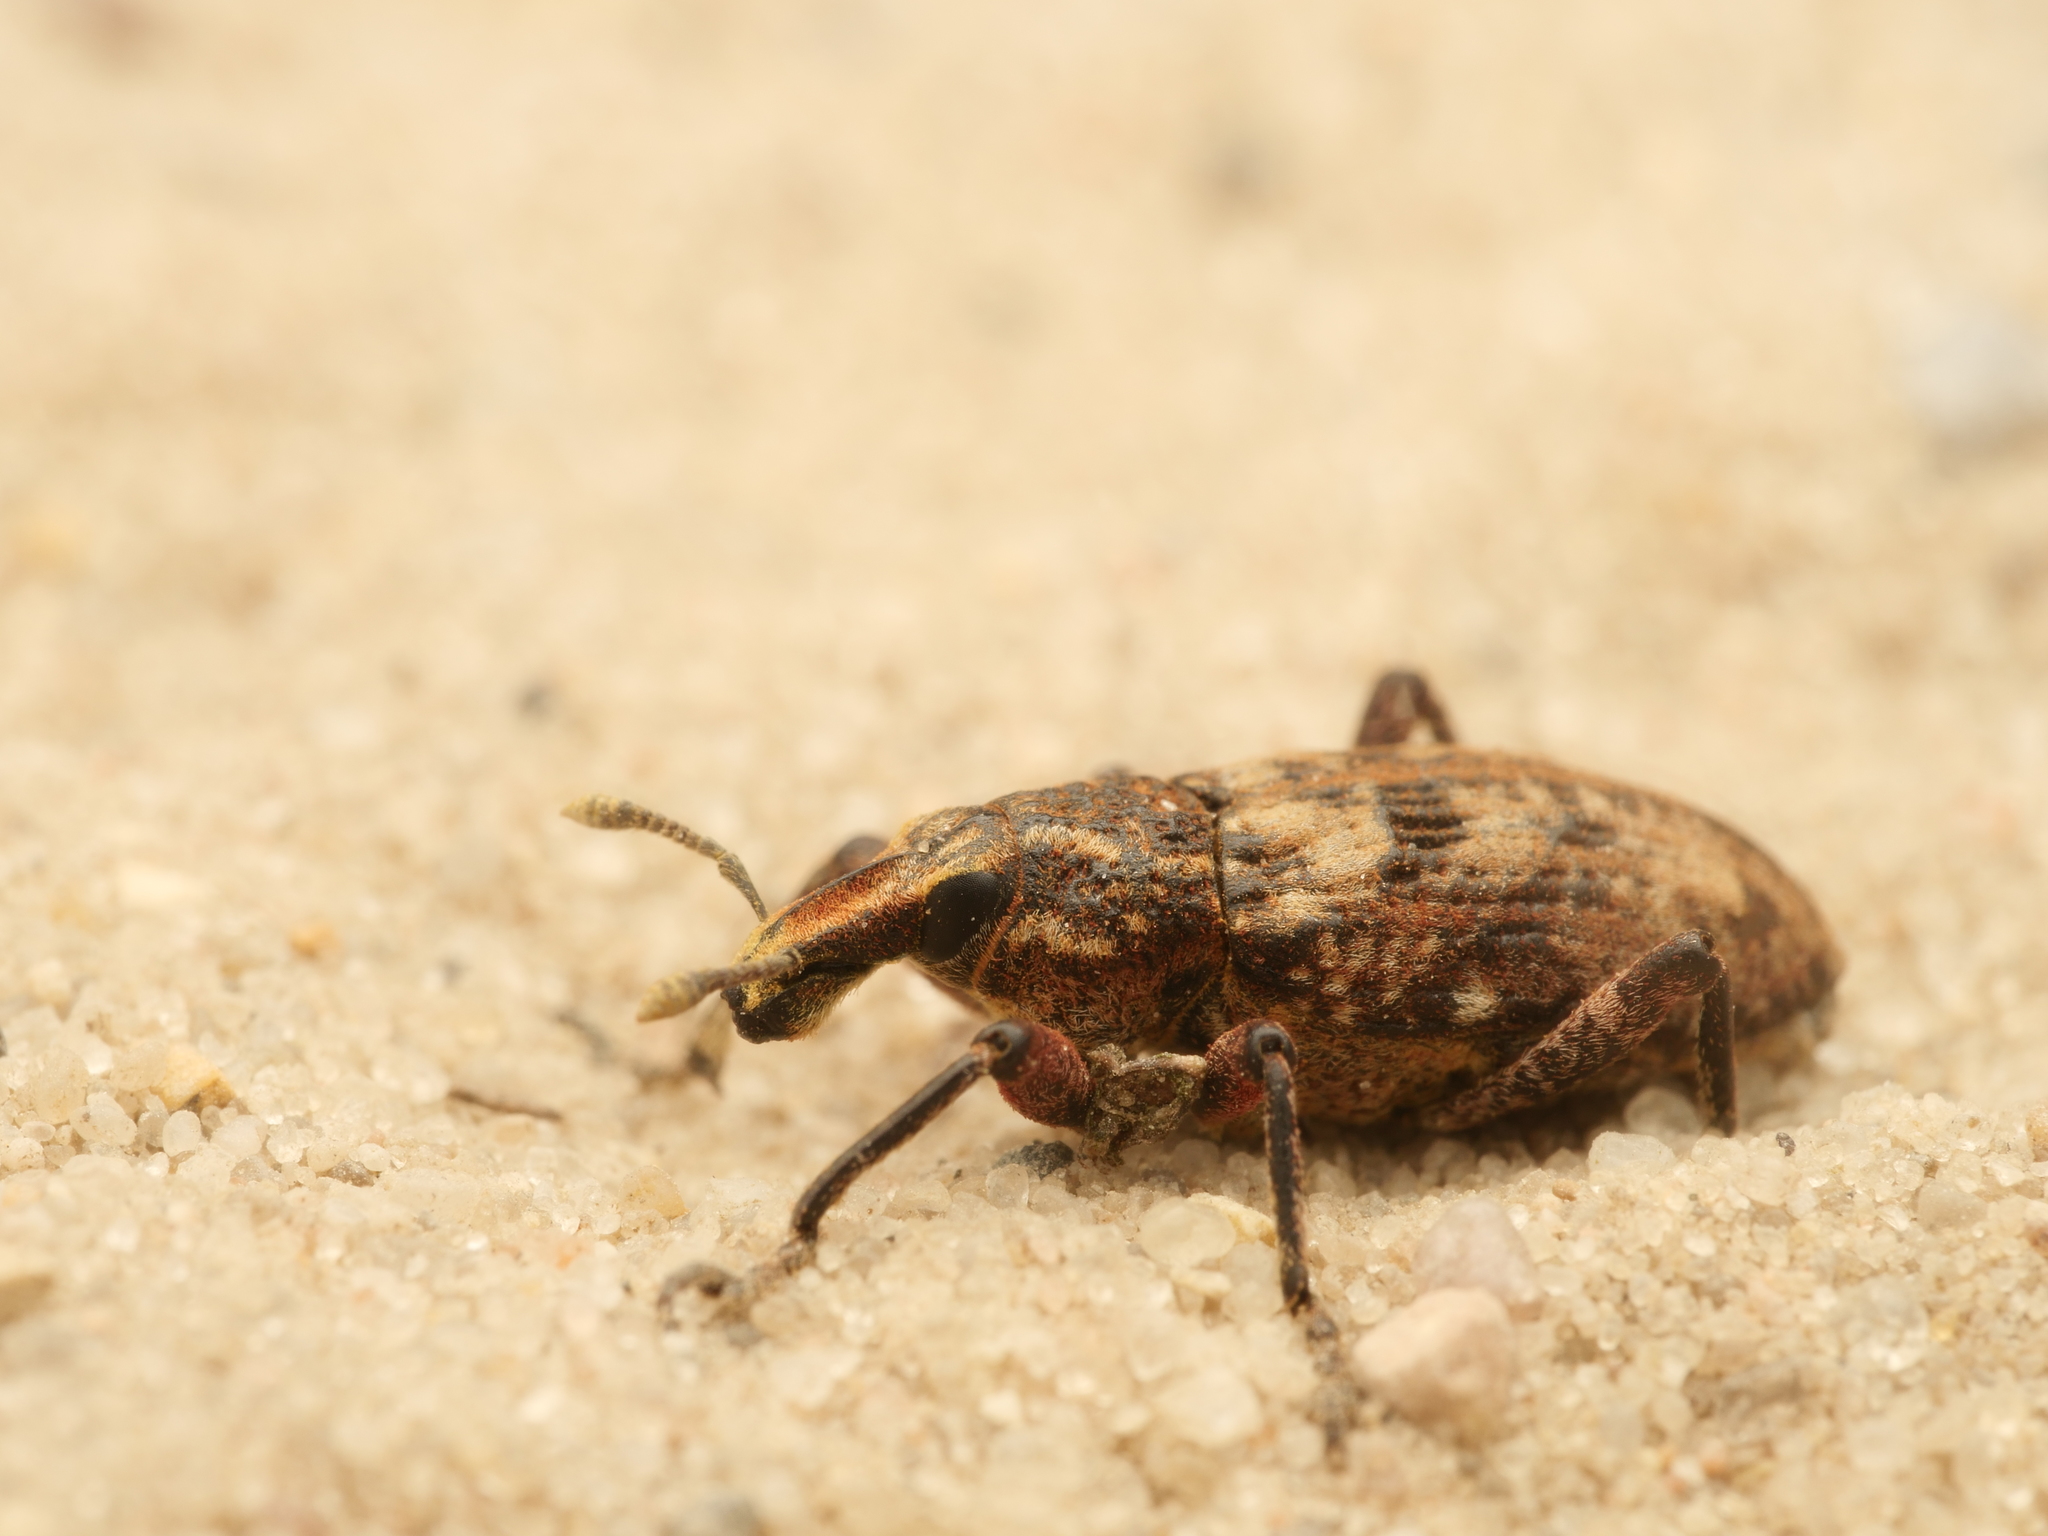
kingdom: Animalia
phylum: Arthropoda
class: Insecta
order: Coleoptera
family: Curculionidae
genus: Coniocleonus
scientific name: Coniocleonus turbatus
